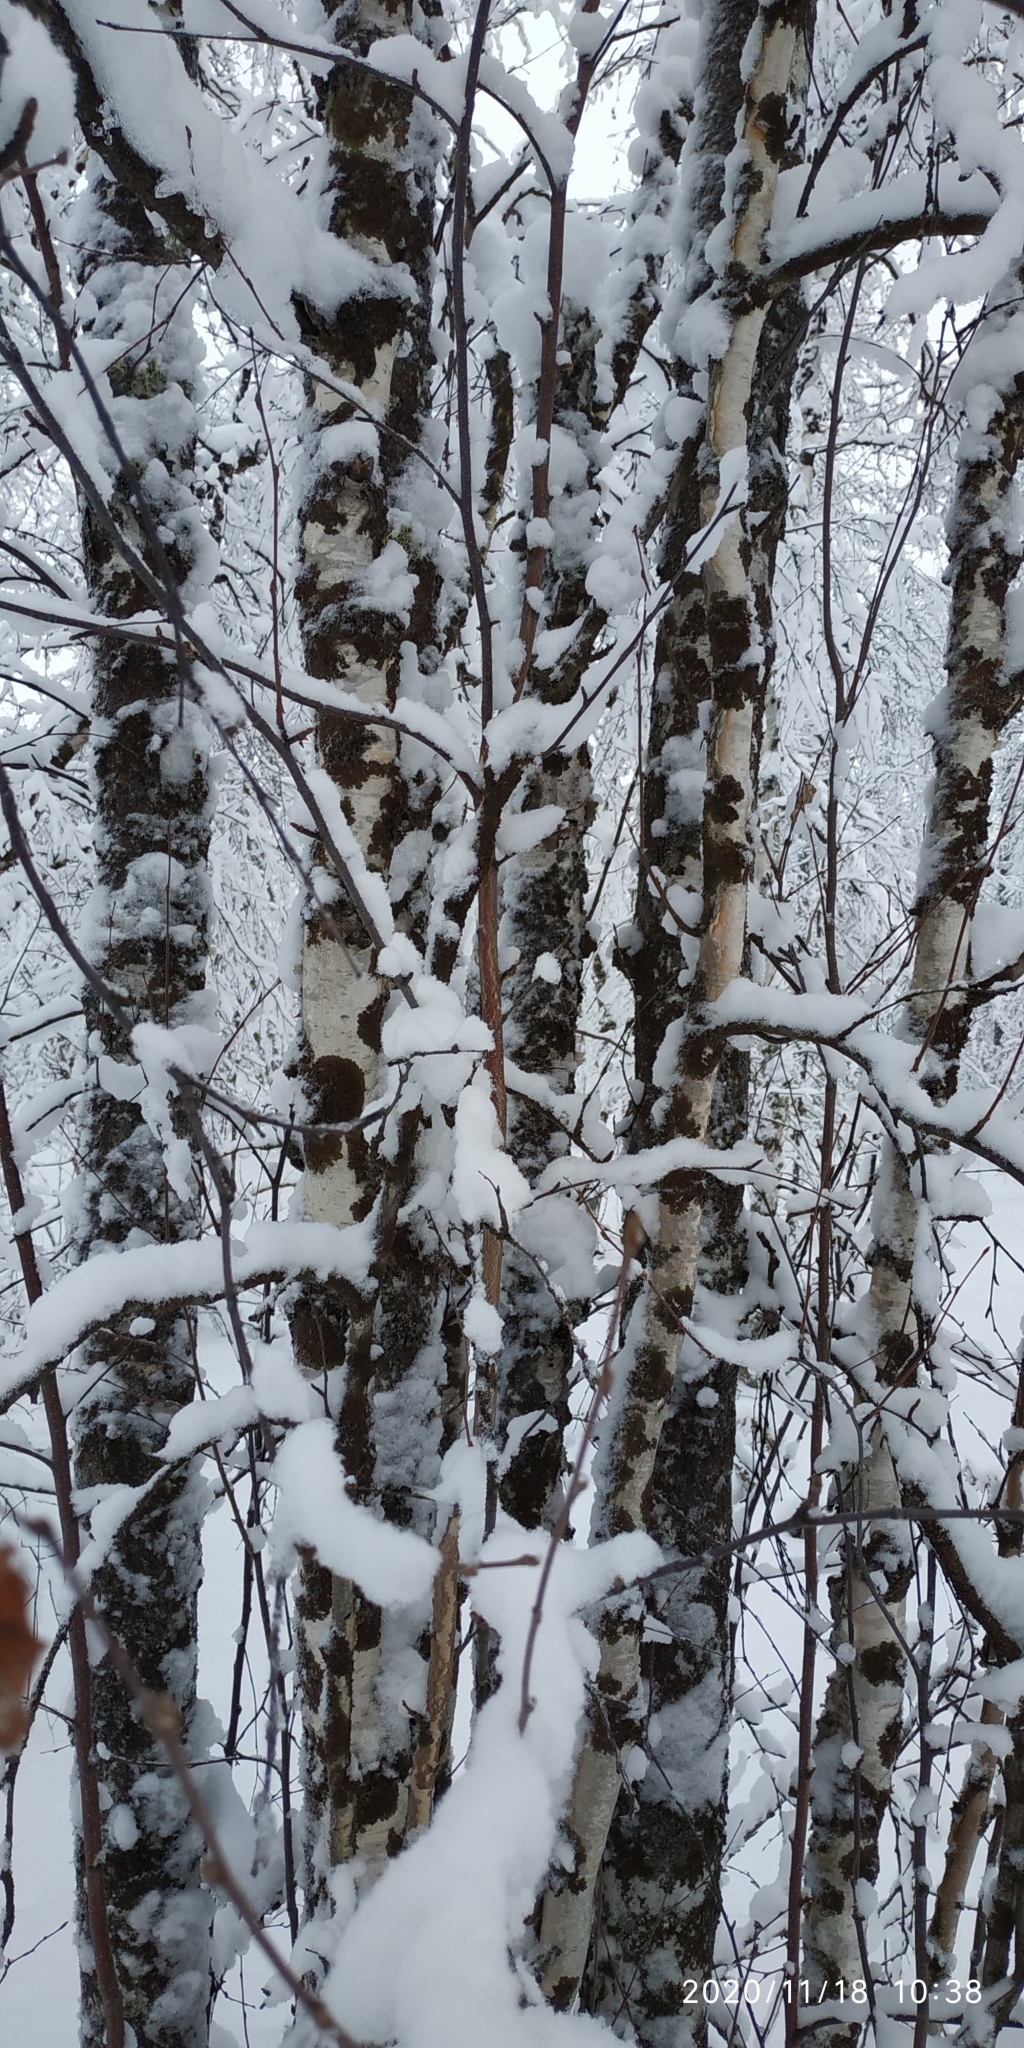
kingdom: Plantae
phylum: Tracheophyta
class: Magnoliopsida
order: Fagales
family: Betulaceae
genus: Betula
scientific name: Betula pubescens
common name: Downy birch
